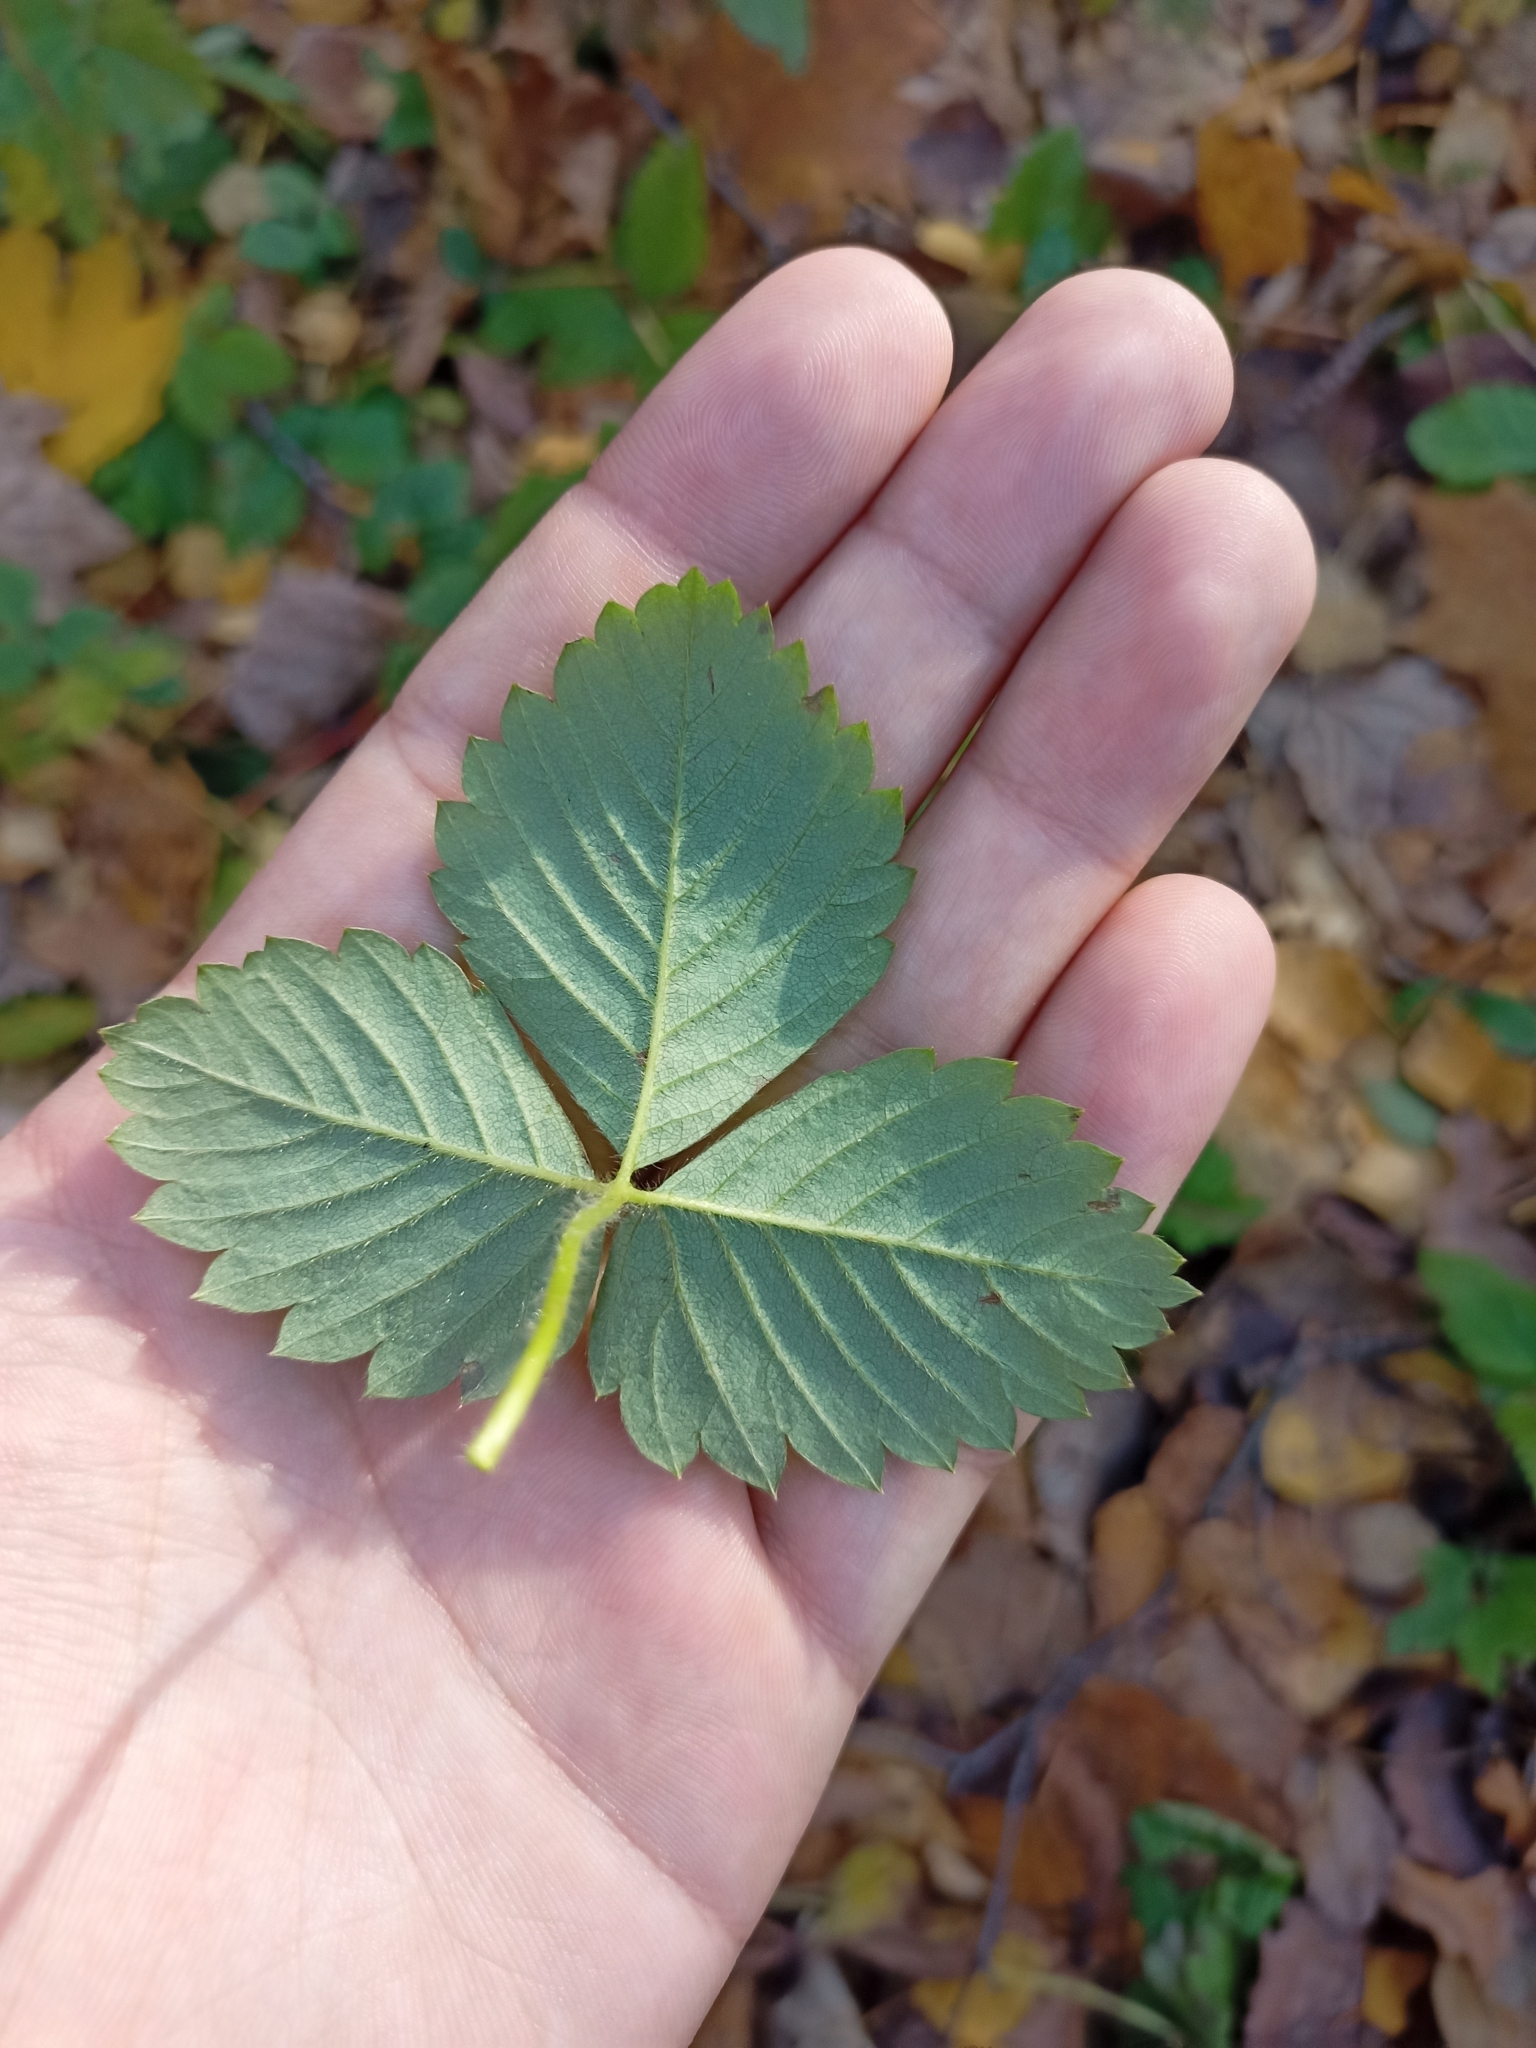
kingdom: Plantae
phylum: Tracheophyta
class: Magnoliopsida
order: Rosales
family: Rosaceae
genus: Fragaria
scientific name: Fragaria moschata
